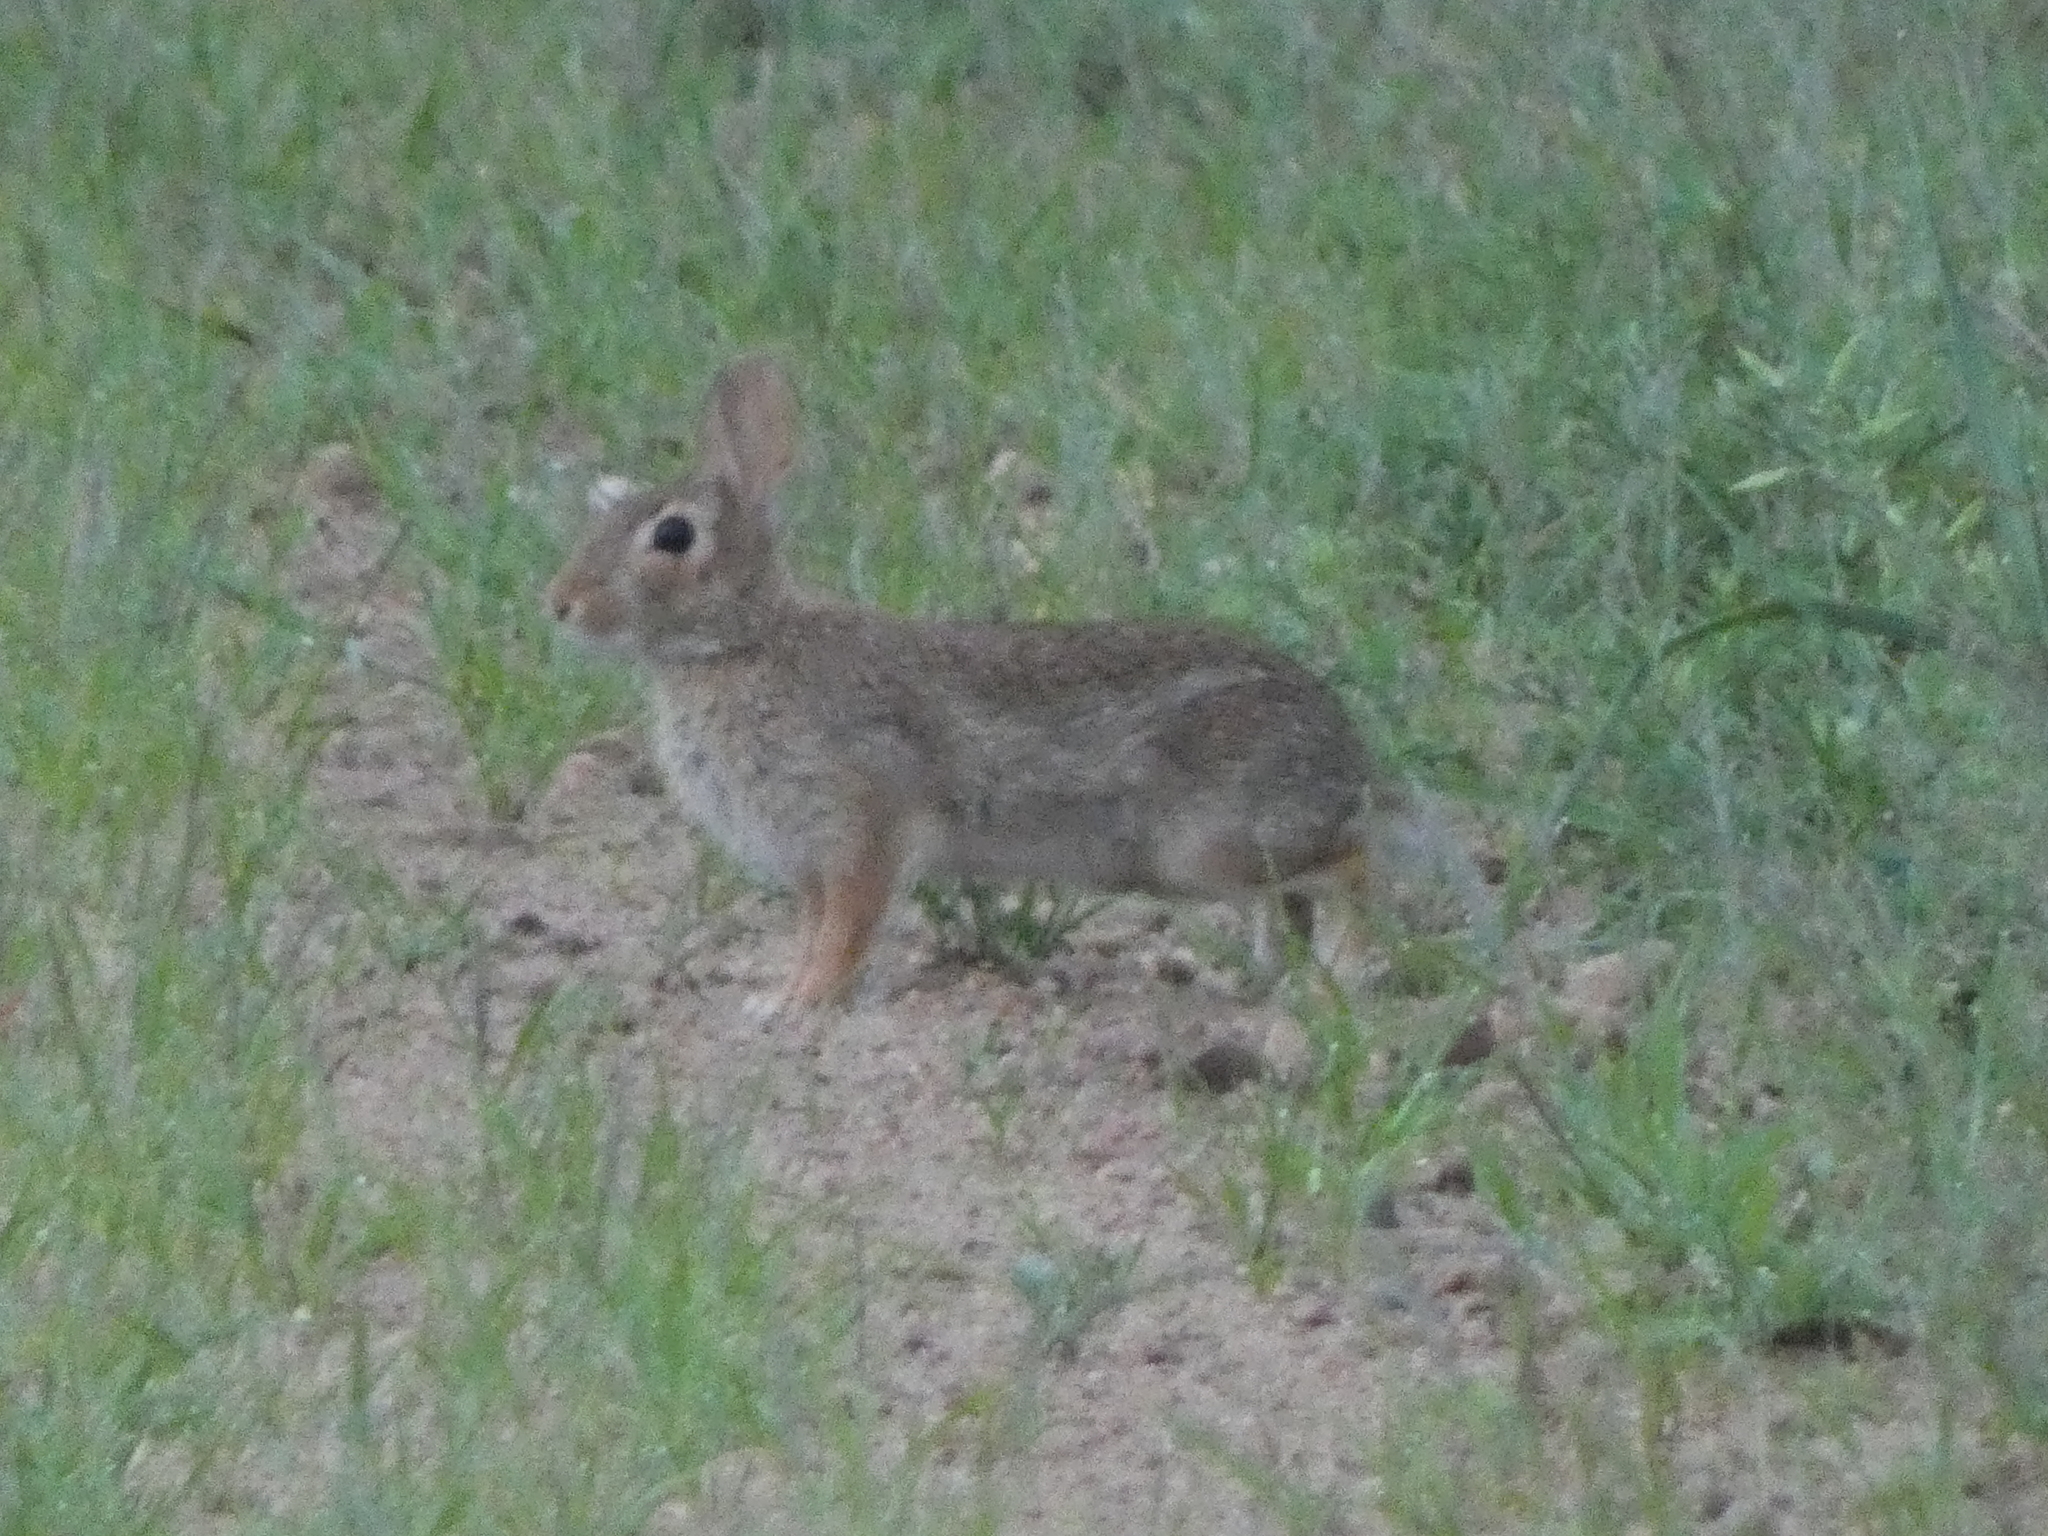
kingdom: Animalia
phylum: Chordata
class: Mammalia
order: Lagomorpha
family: Leporidae
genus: Sylvilagus
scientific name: Sylvilagus floridanus
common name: Eastern cottontail
